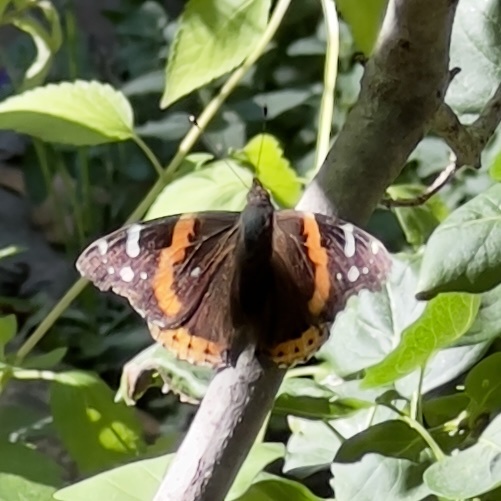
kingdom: Animalia
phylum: Arthropoda
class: Insecta
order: Lepidoptera
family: Nymphalidae
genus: Vanessa
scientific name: Vanessa atalanta
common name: Red admiral
